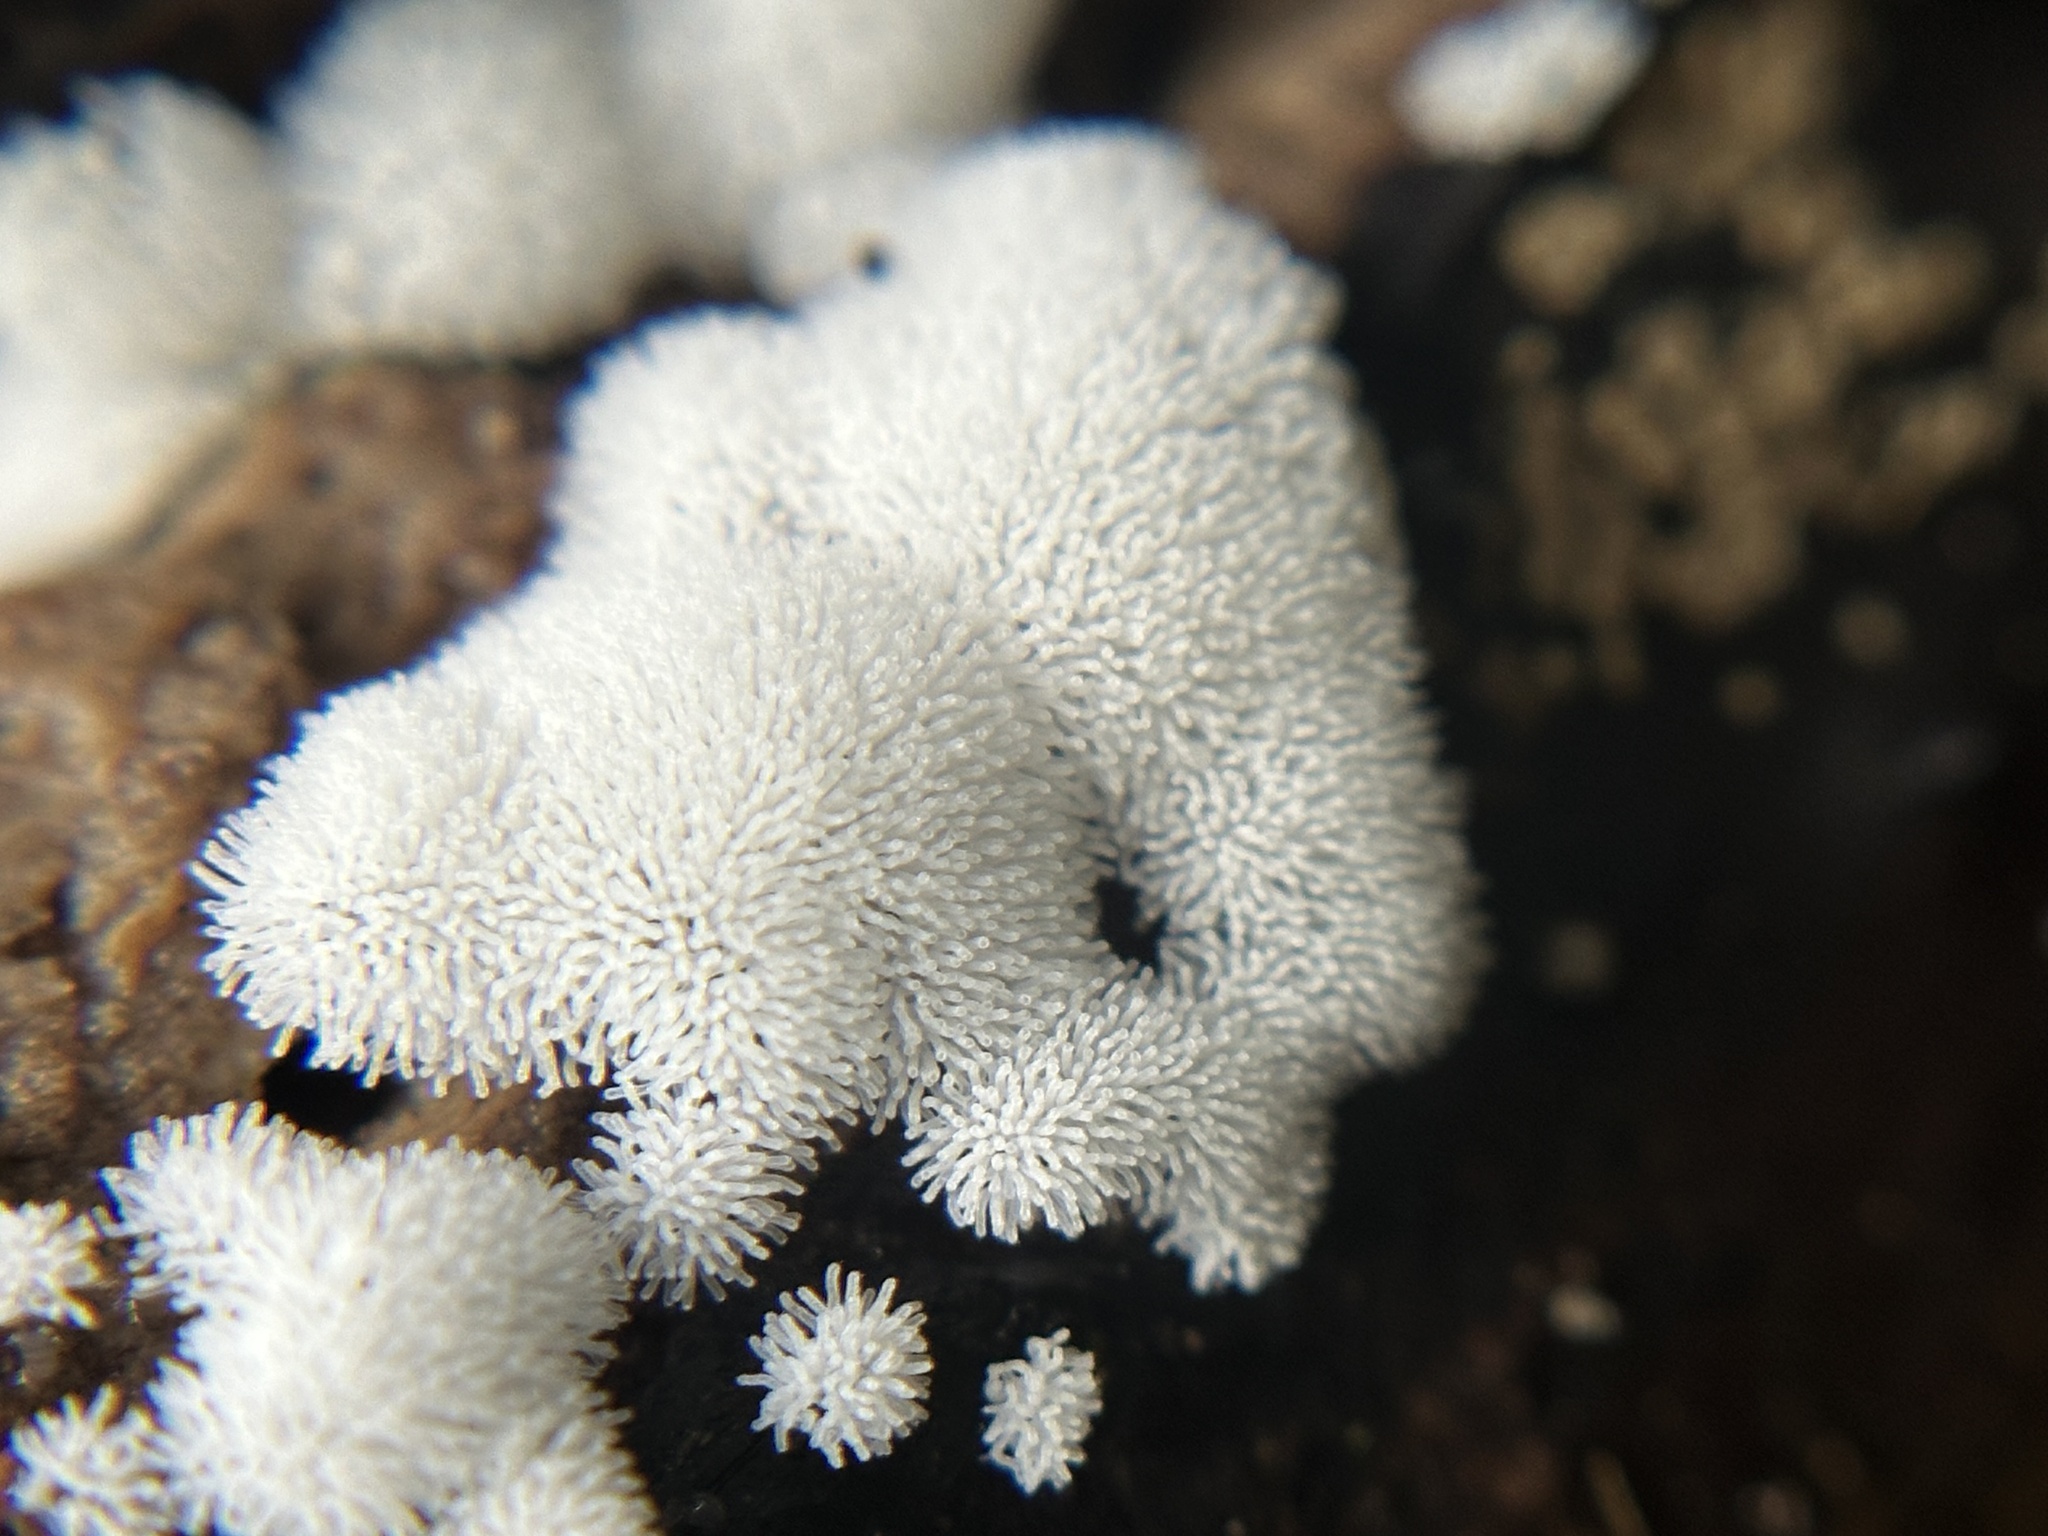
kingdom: Protozoa
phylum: Mycetozoa
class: Protosteliomycetes
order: Ceratiomyxales
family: Ceratiomyxaceae
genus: Ceratiomyxa
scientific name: Ceratiomyxa fruticulosa
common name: Honeycomb coral slime mold
